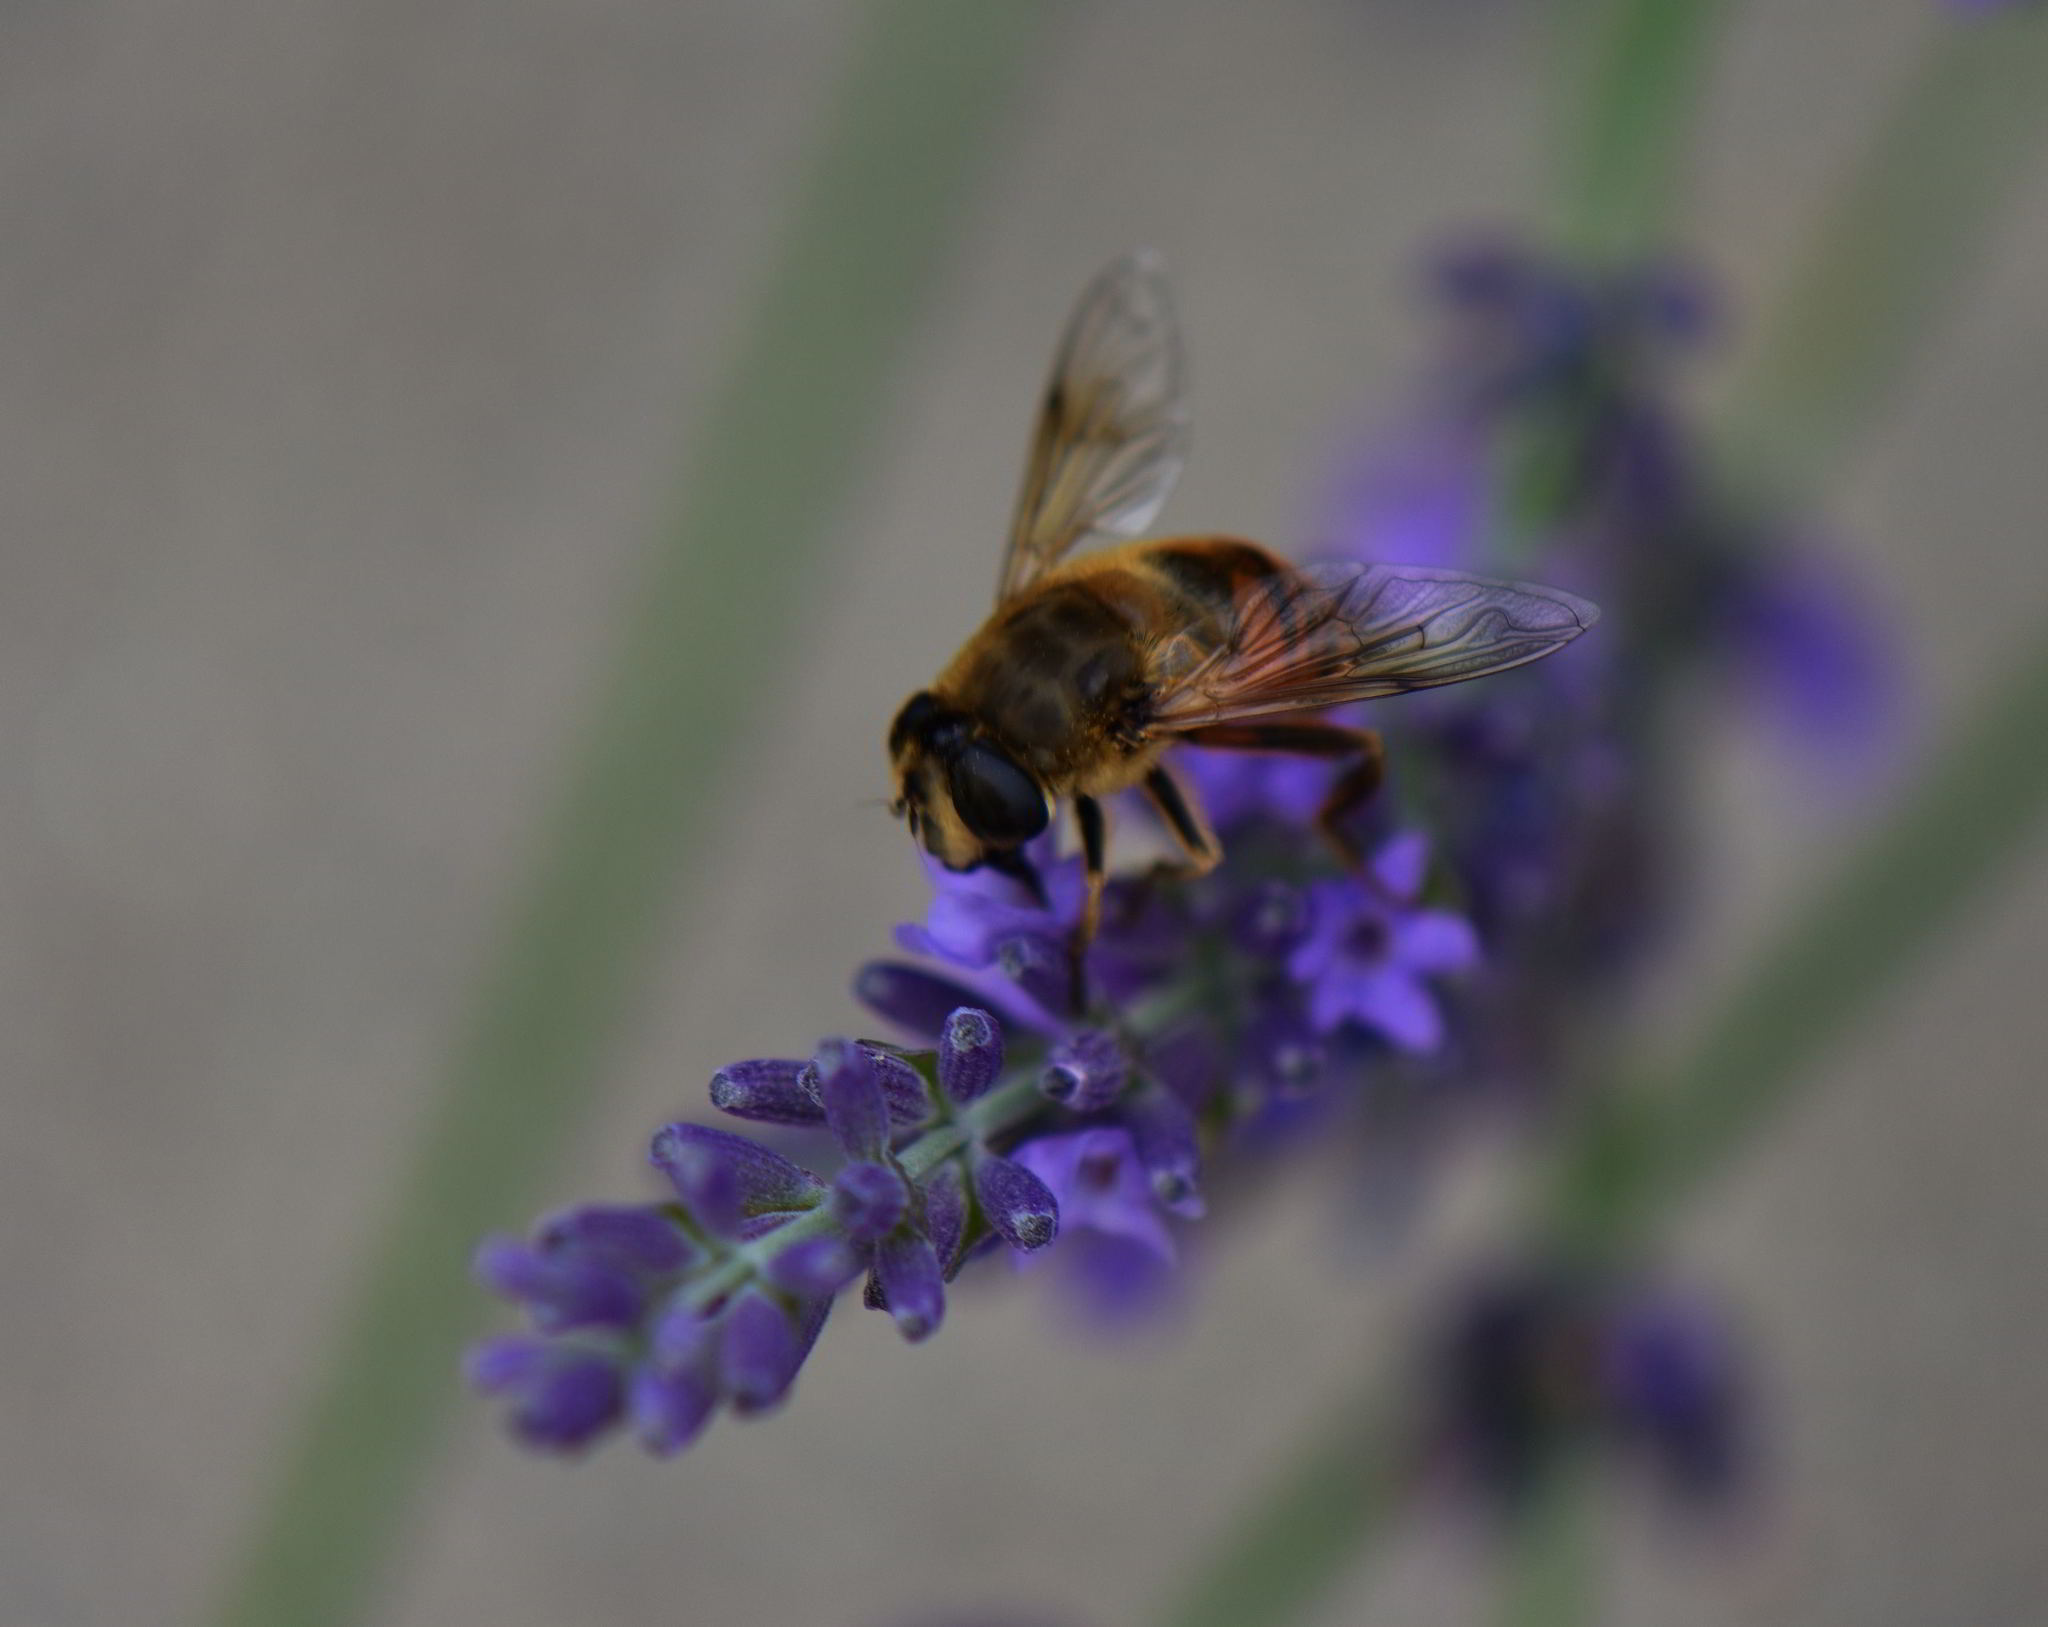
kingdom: Animalia
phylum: Arthropoda
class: Insecta
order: Diptera
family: Syrphidae
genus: Eristalis
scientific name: Eristalis tenax
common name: Drone fly
